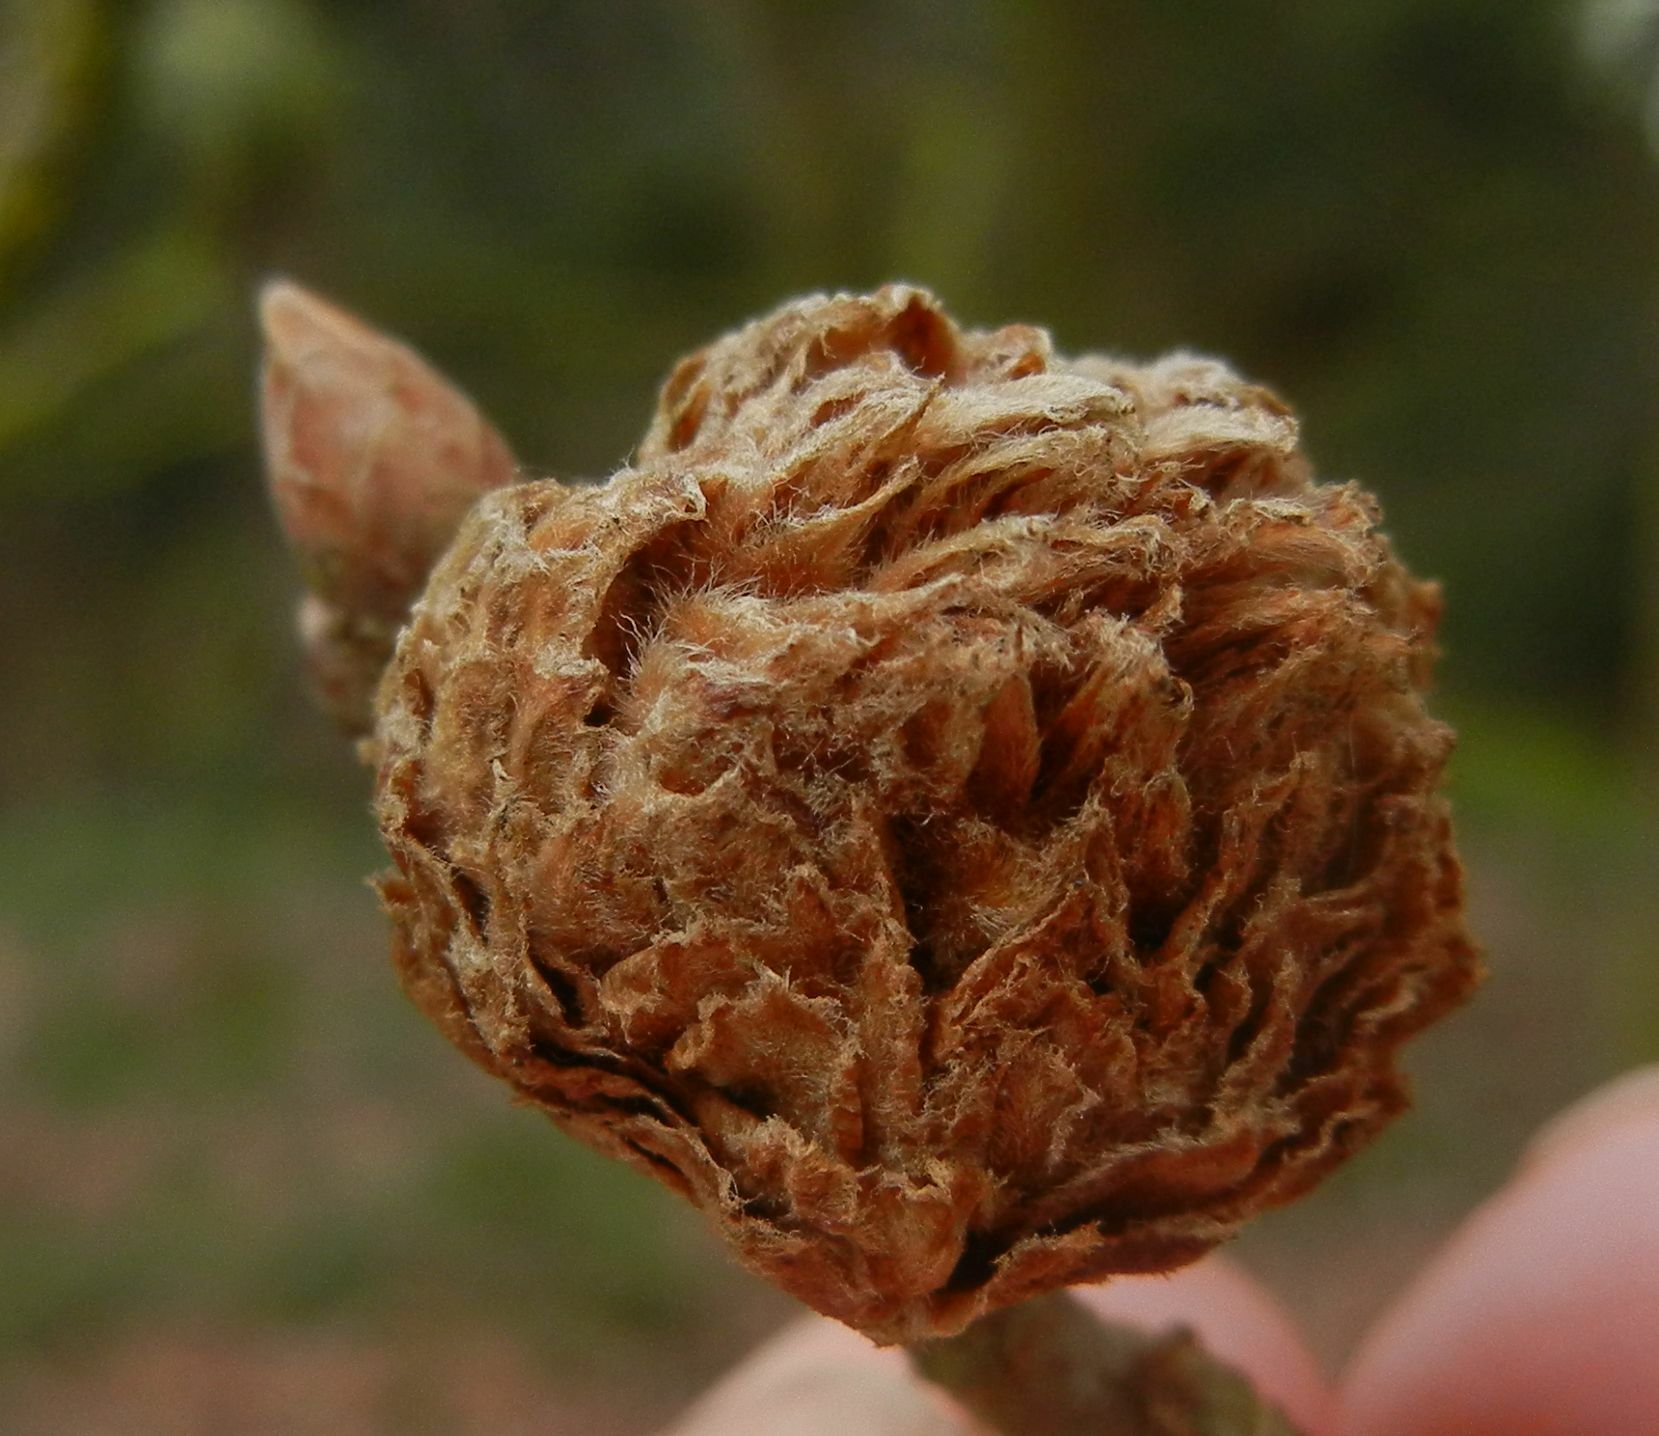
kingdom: Animalia
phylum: Arthropoda
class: Insecta
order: Hymenoptera
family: Cynipidae
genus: Andricus
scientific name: Andricus foecundatrix
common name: Artichoke gall
